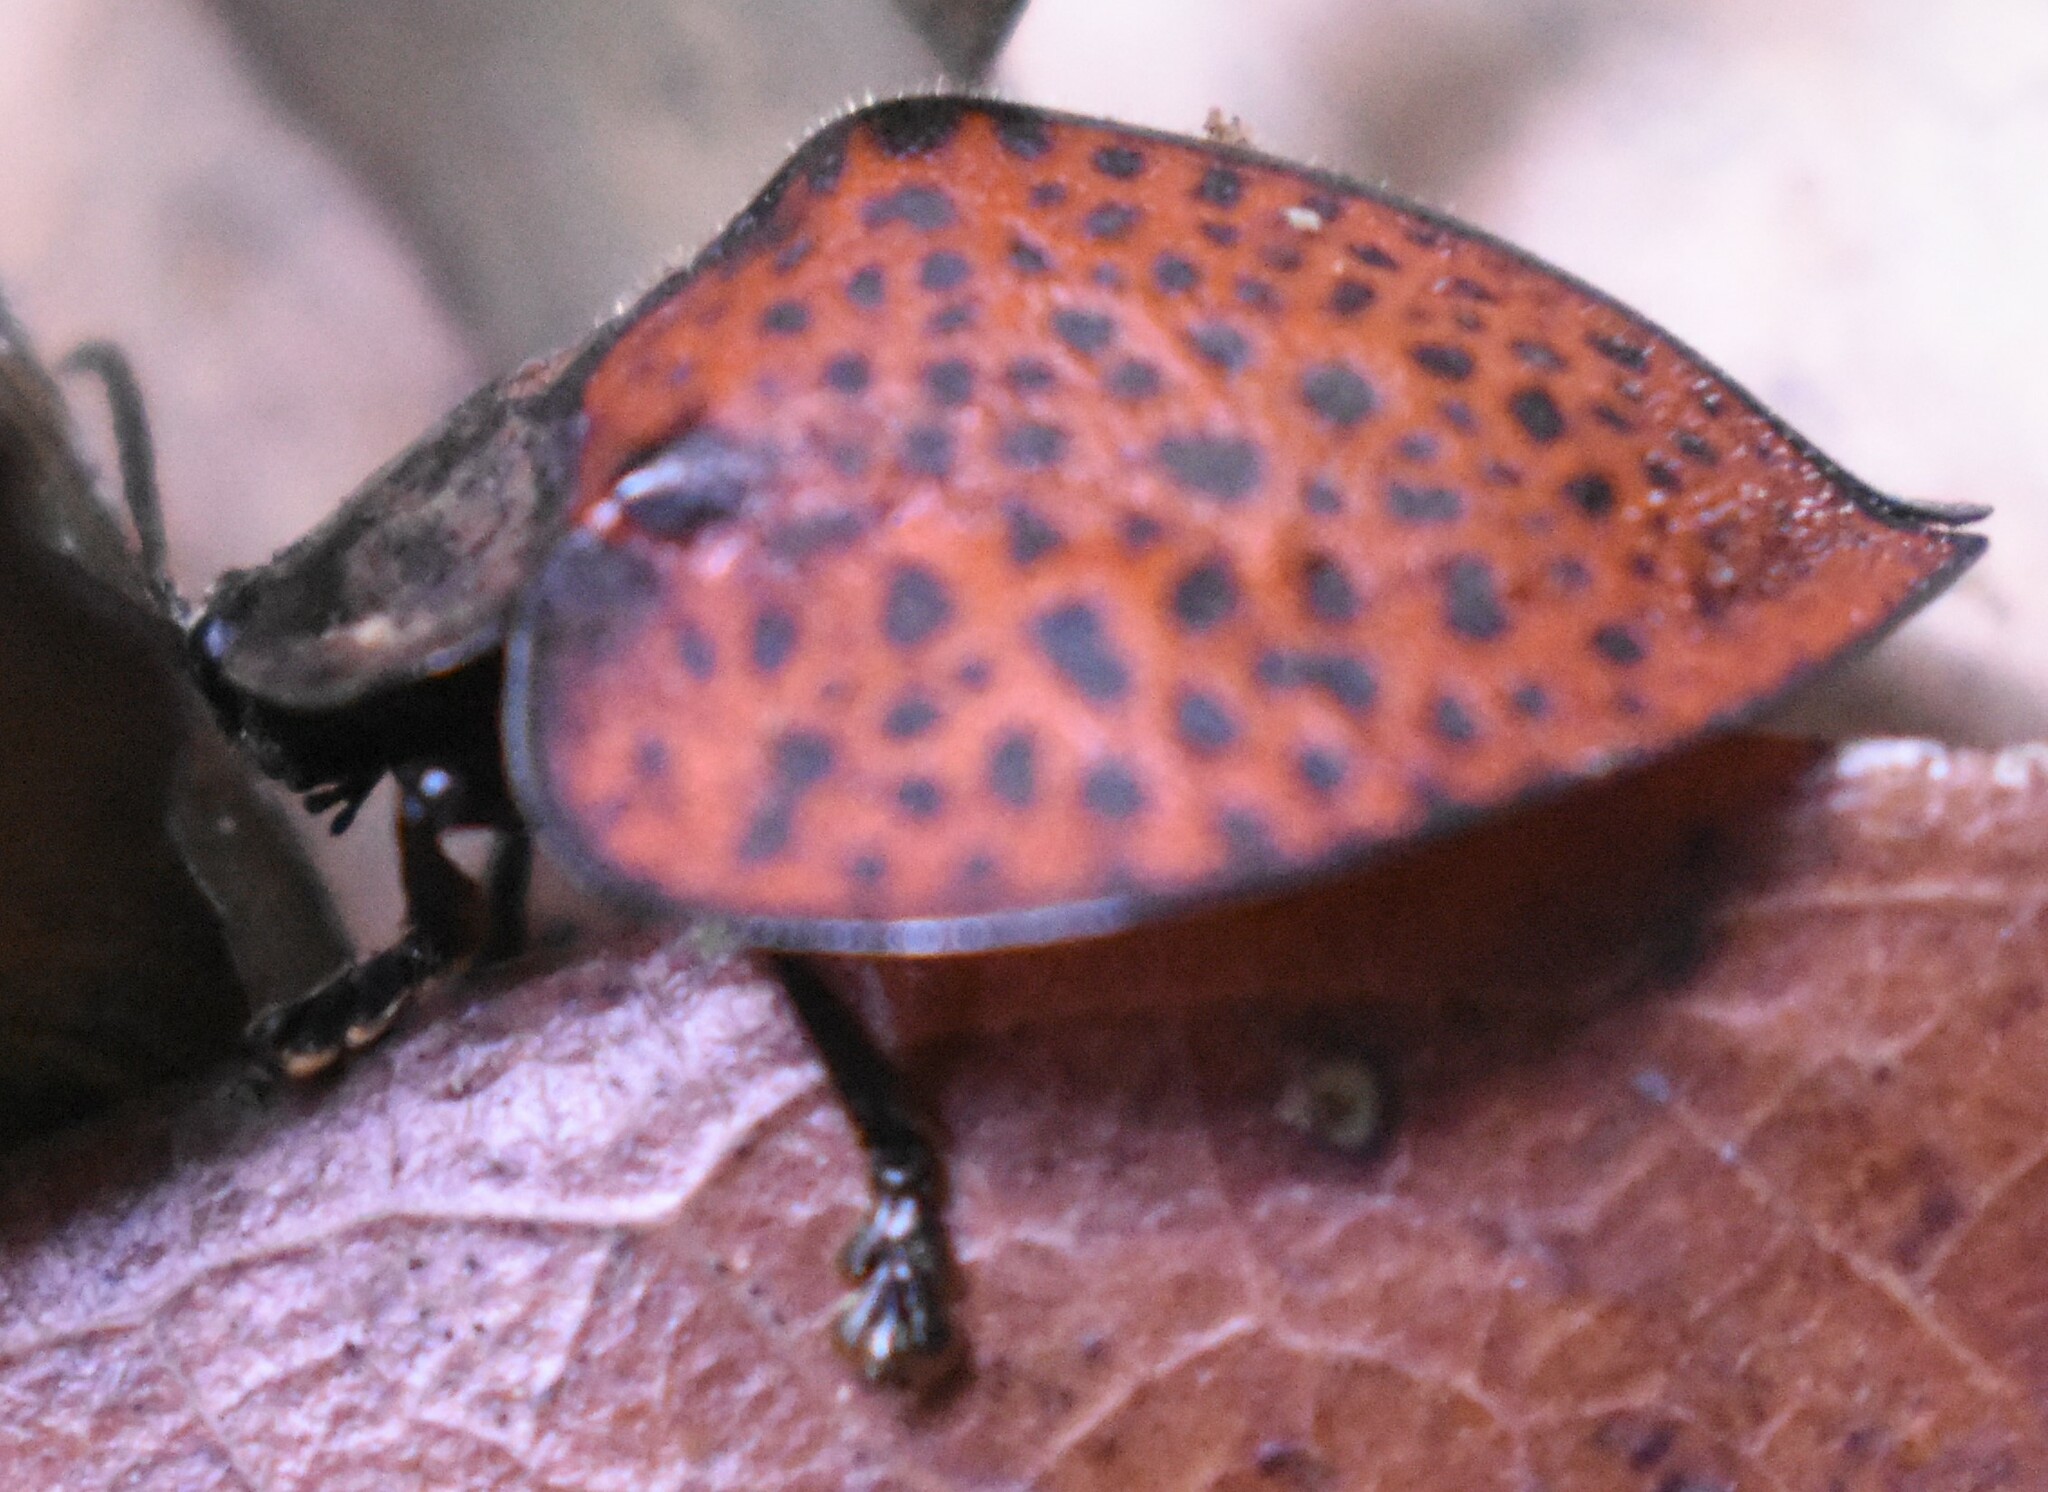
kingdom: Animalia
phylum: Arthropoda
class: Insecta
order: Coleoptera
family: Chrysomelidae
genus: Stolas
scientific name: Stolas huanocensis
